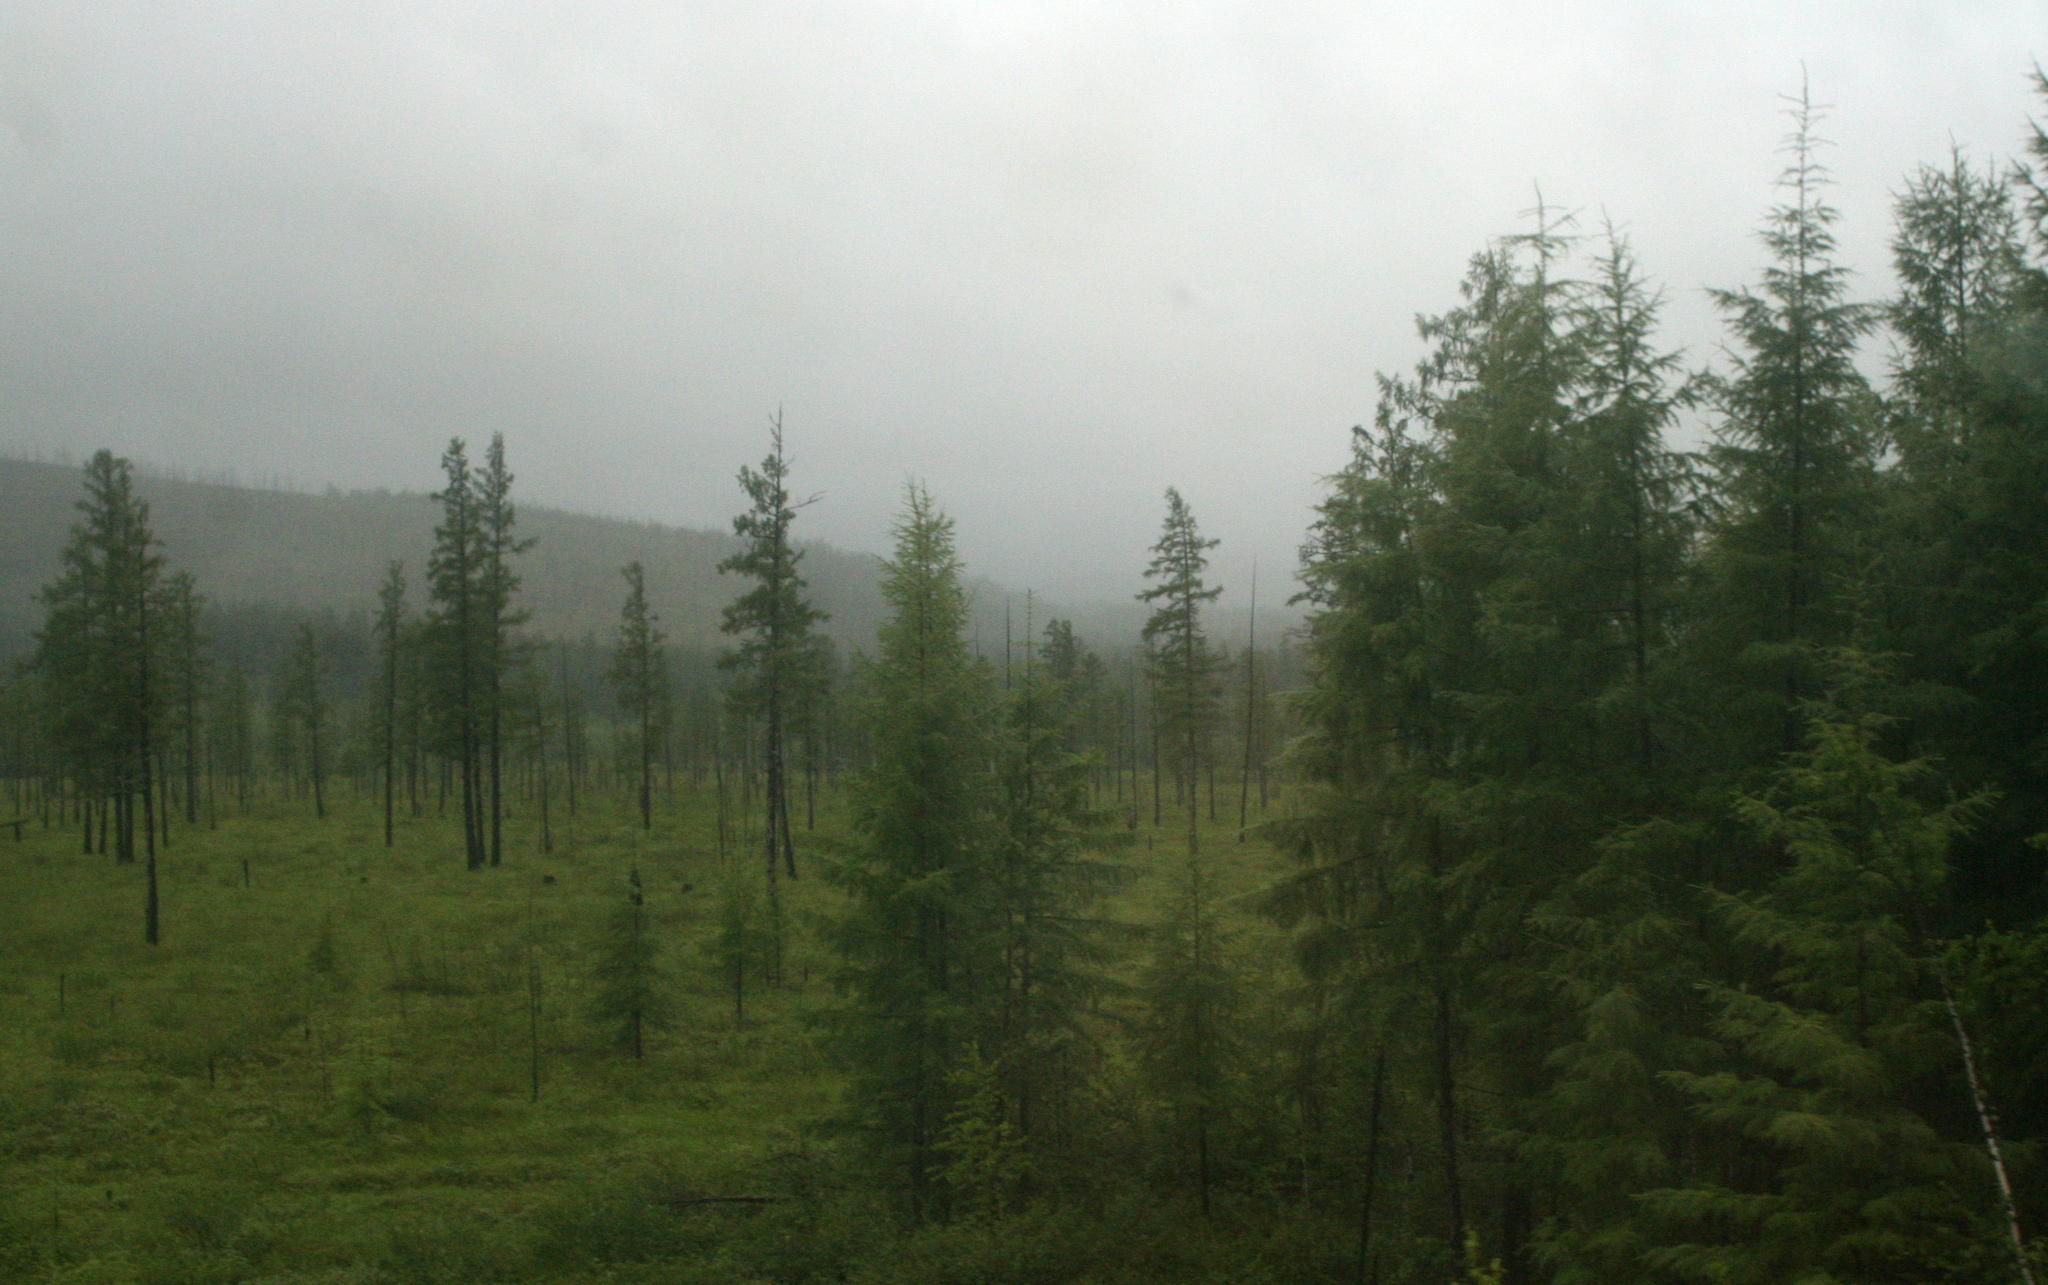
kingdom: Plantae
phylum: Tracheophyta
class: Pinopsida
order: Pinales
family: Pinaceae
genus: Larix
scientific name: Larix gmelinii
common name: Dahurian larch
